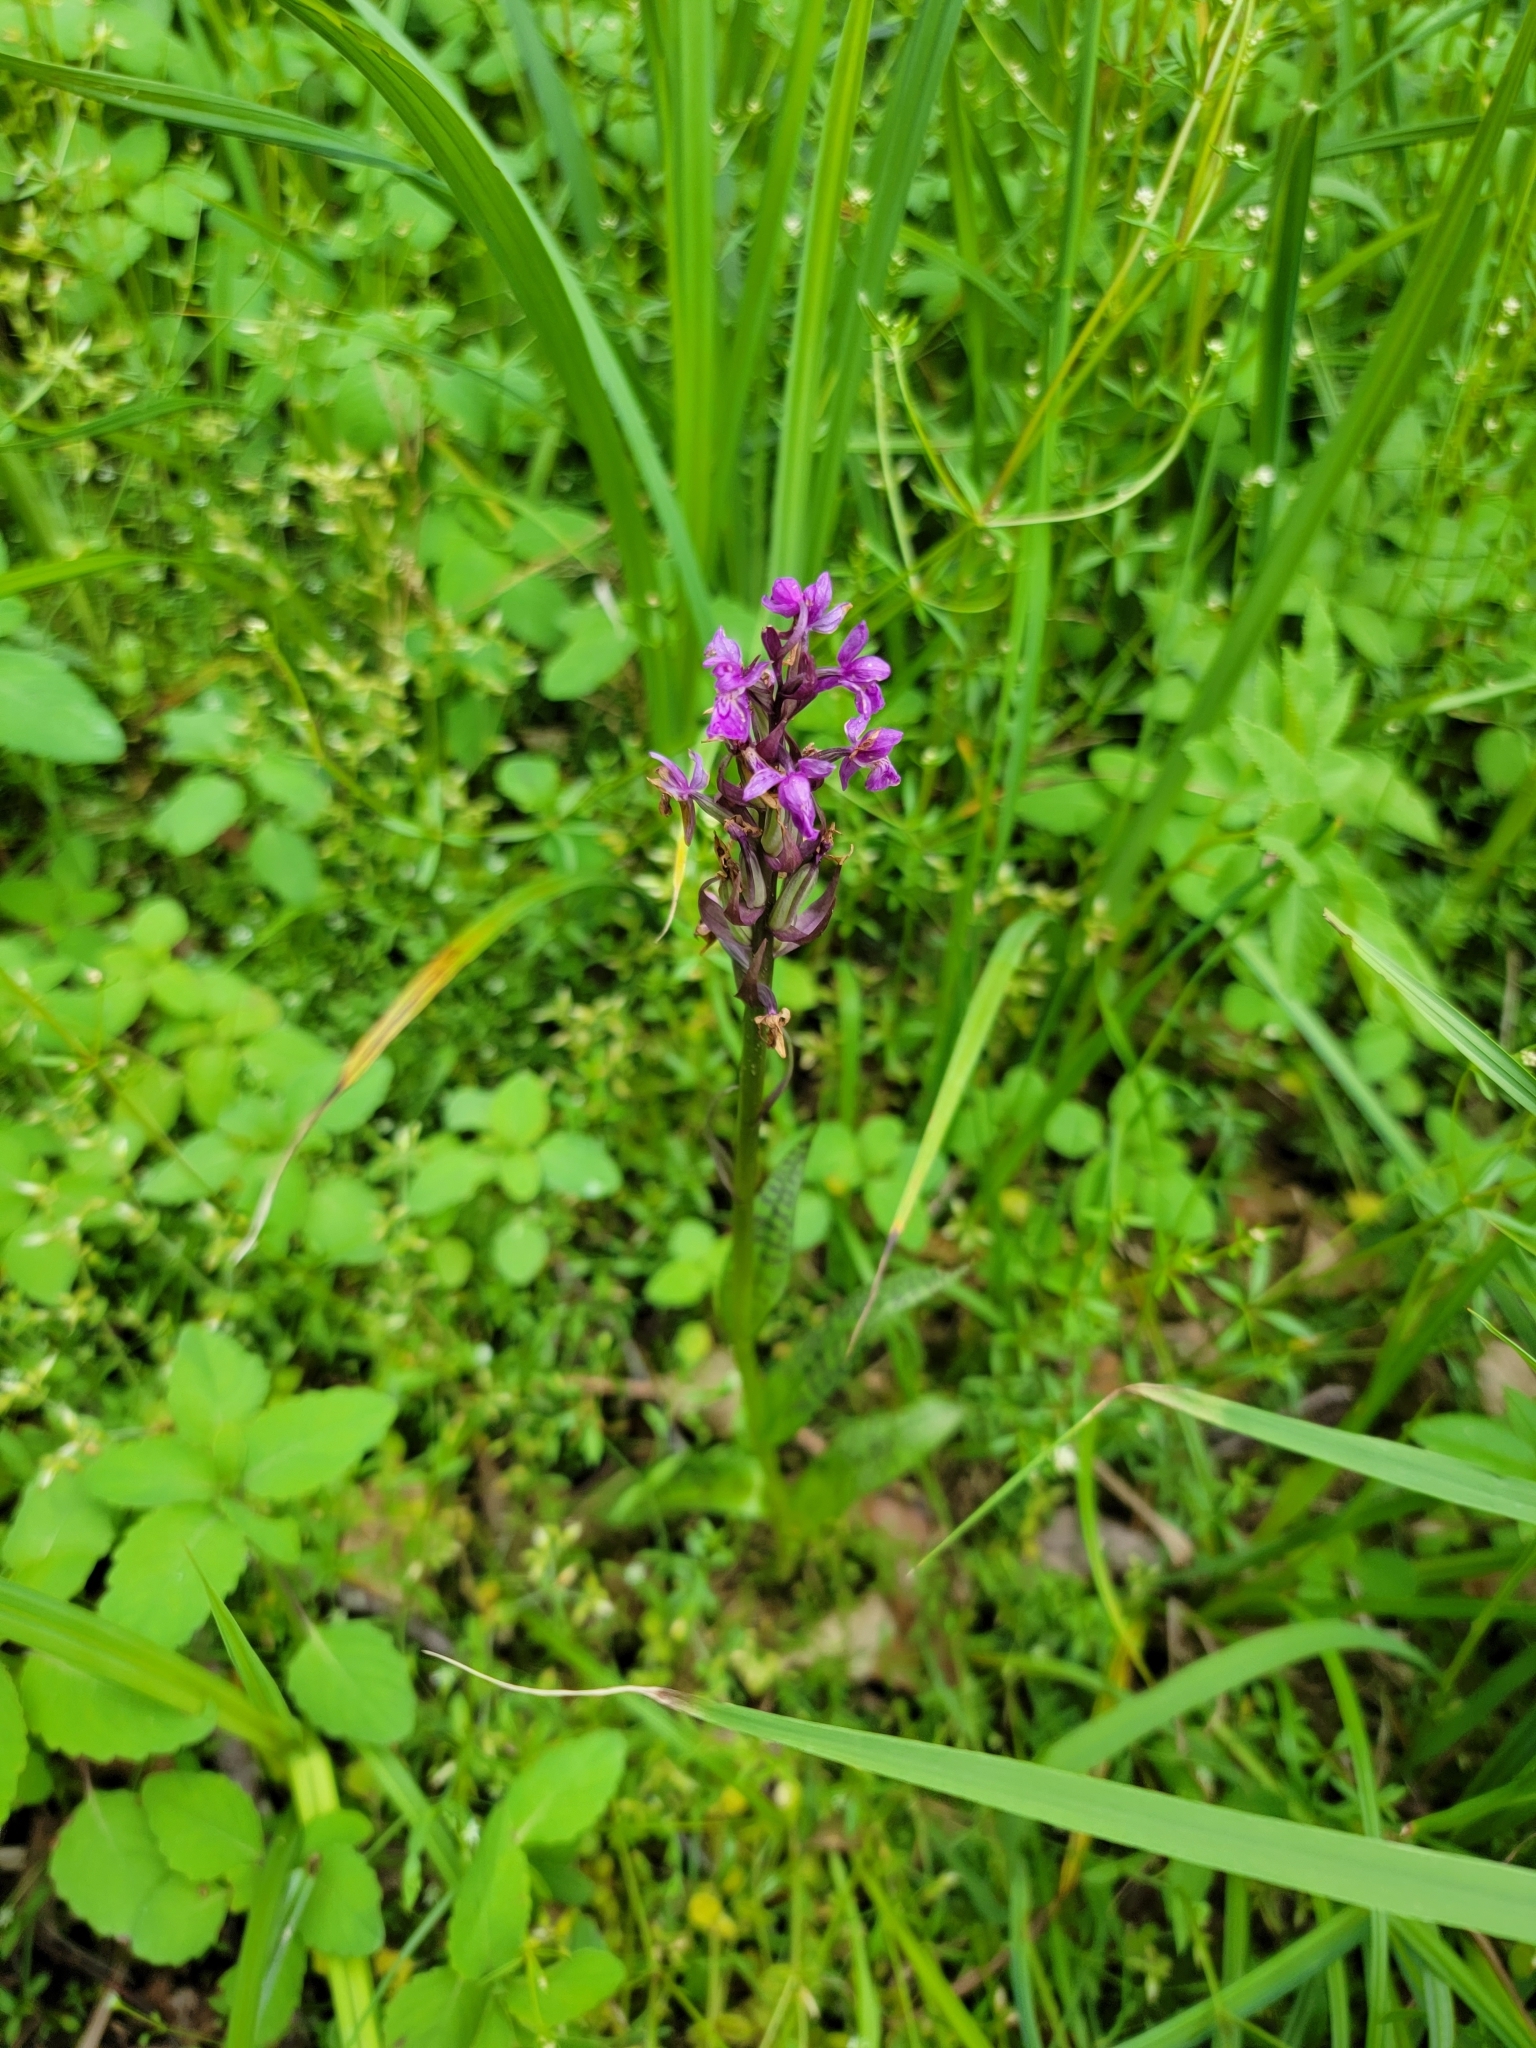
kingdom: Plantae
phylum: Tracheophyta
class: Liliopsida
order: Asparagales
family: Orchidaceae
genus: Dactylorhiza
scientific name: Dactylorhiza majalis
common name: Marsh orchid
